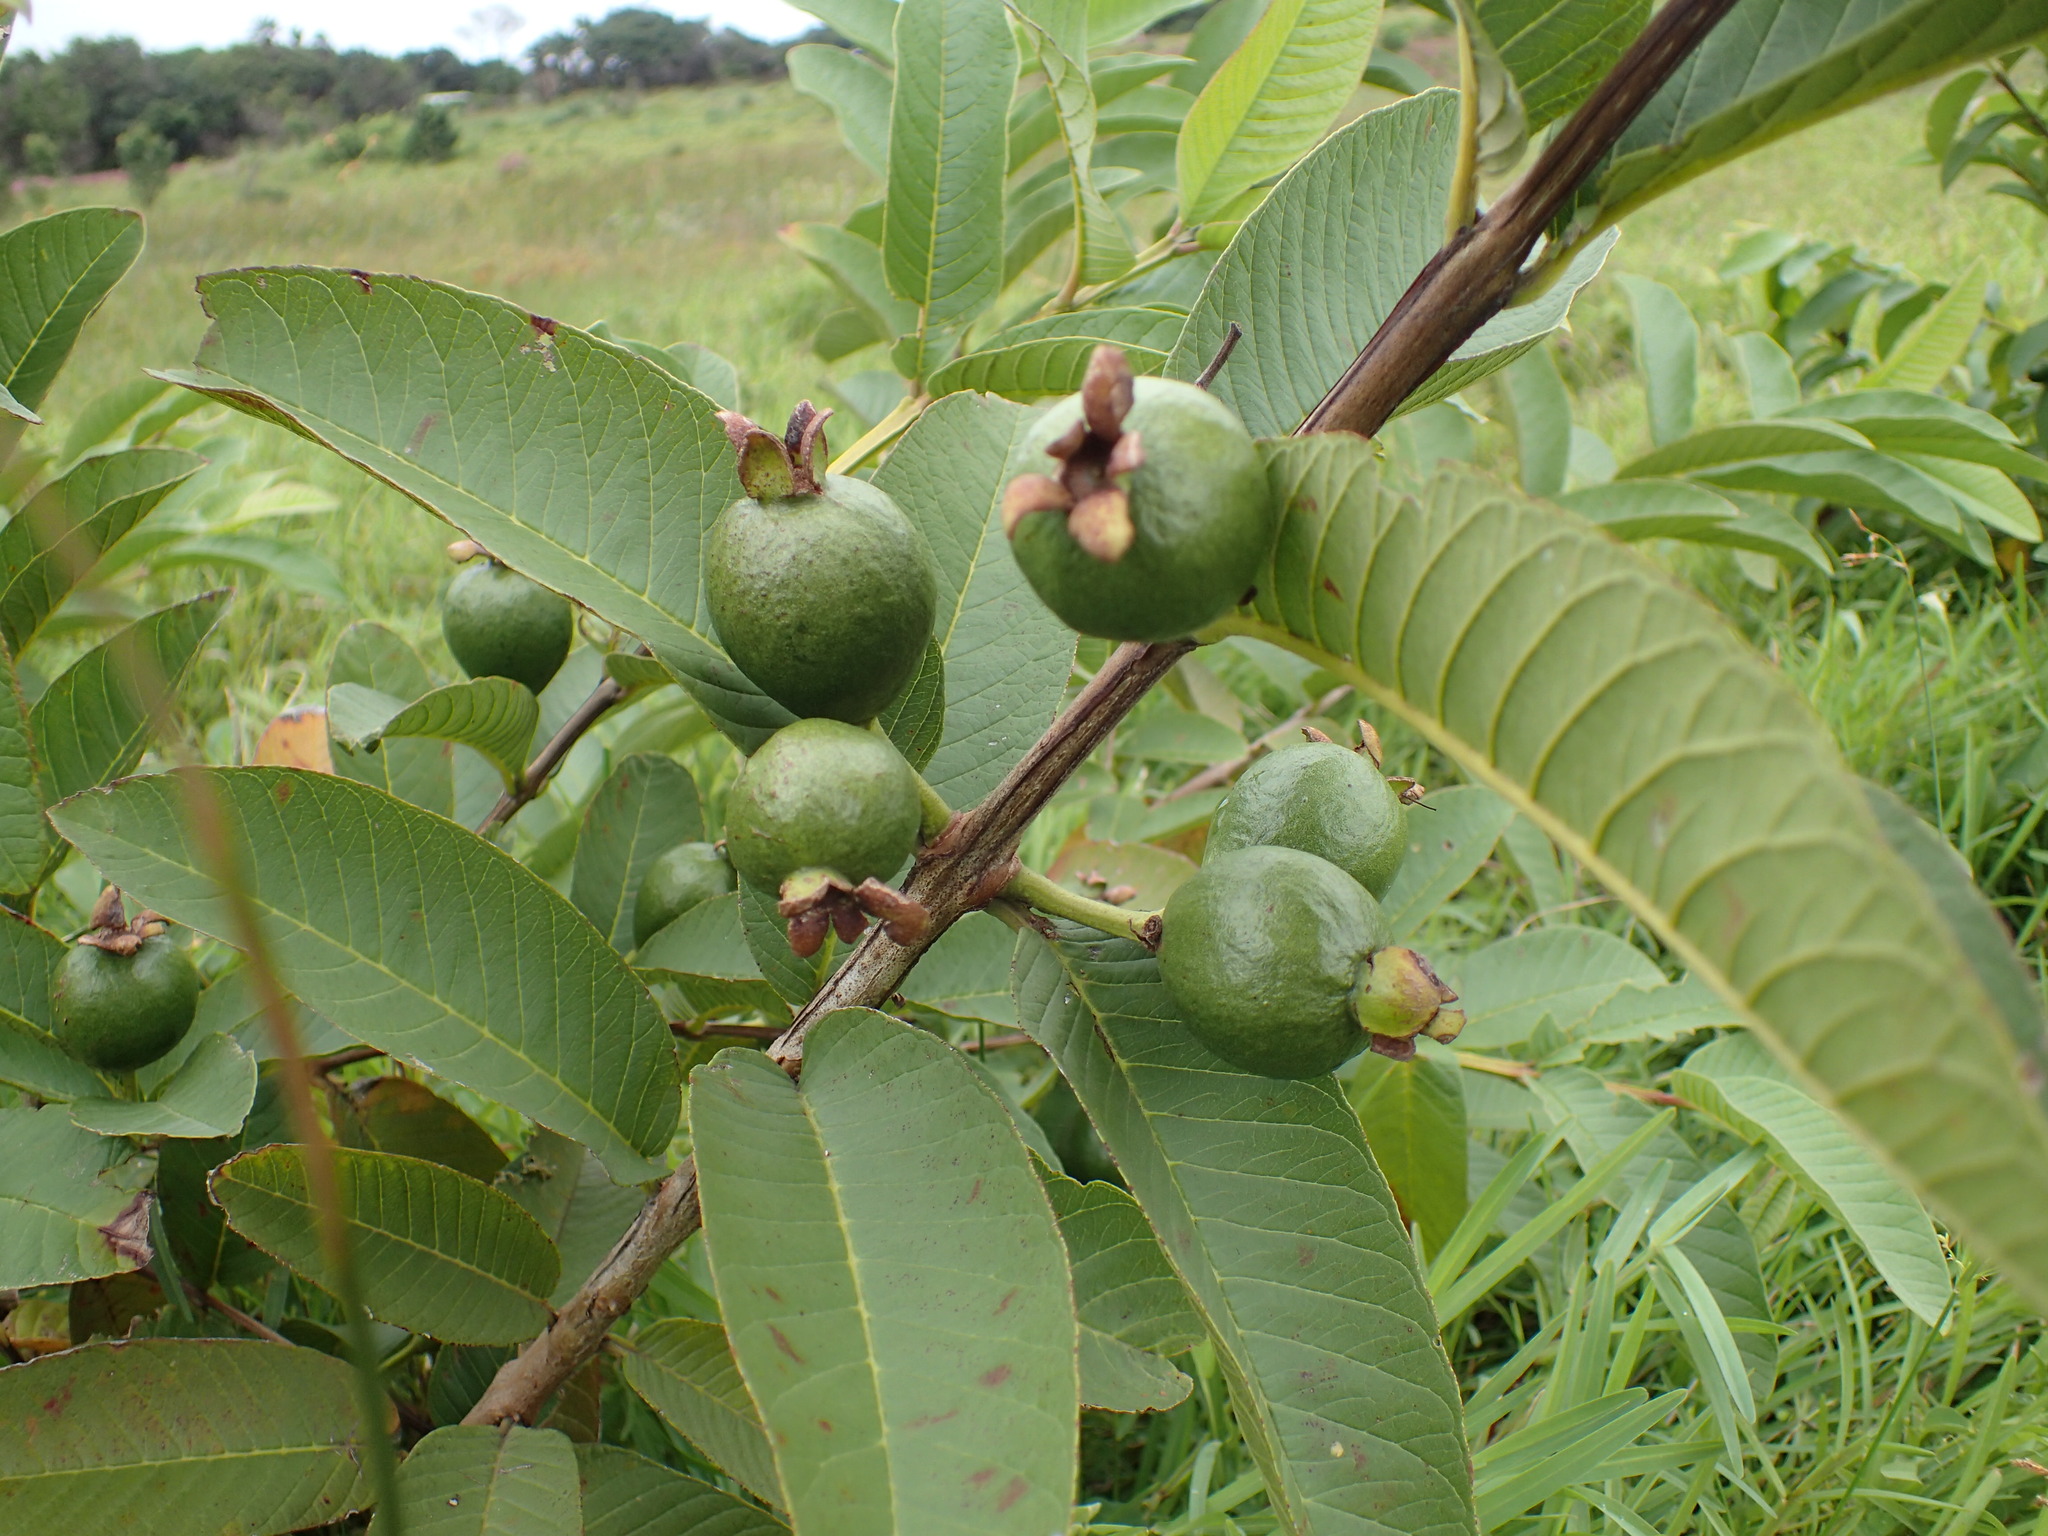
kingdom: Plantae
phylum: Tracheophyta
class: Magnoliopsida
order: Myrtales
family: Myrtaceae
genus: Psidium
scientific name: Psidium guajava
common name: Guava
